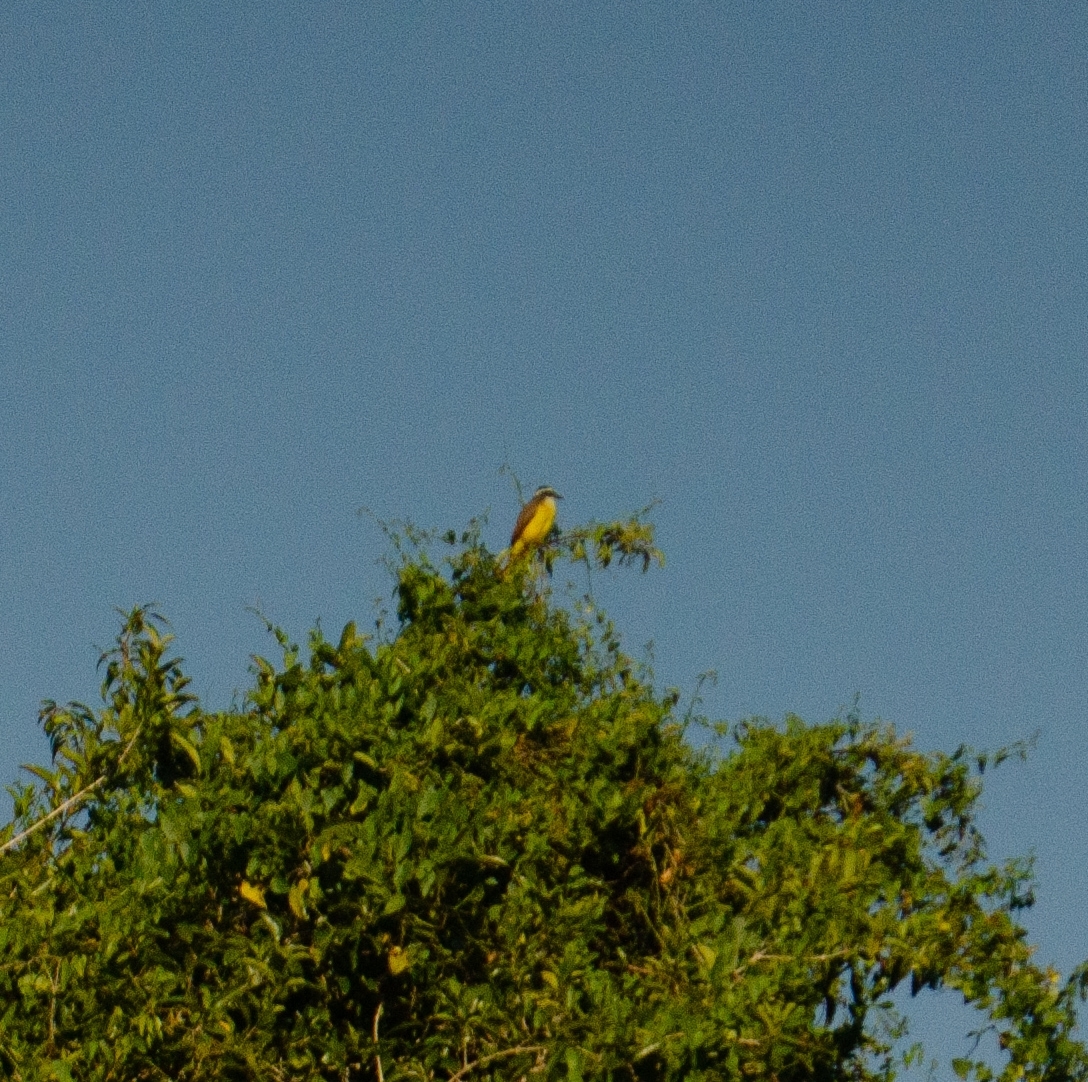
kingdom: Animalia
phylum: Chordata
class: Aves
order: Passeriformes
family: Tyrannidae
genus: Pitangus
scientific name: Pitangus sulphuratus
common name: Great kiskadee
